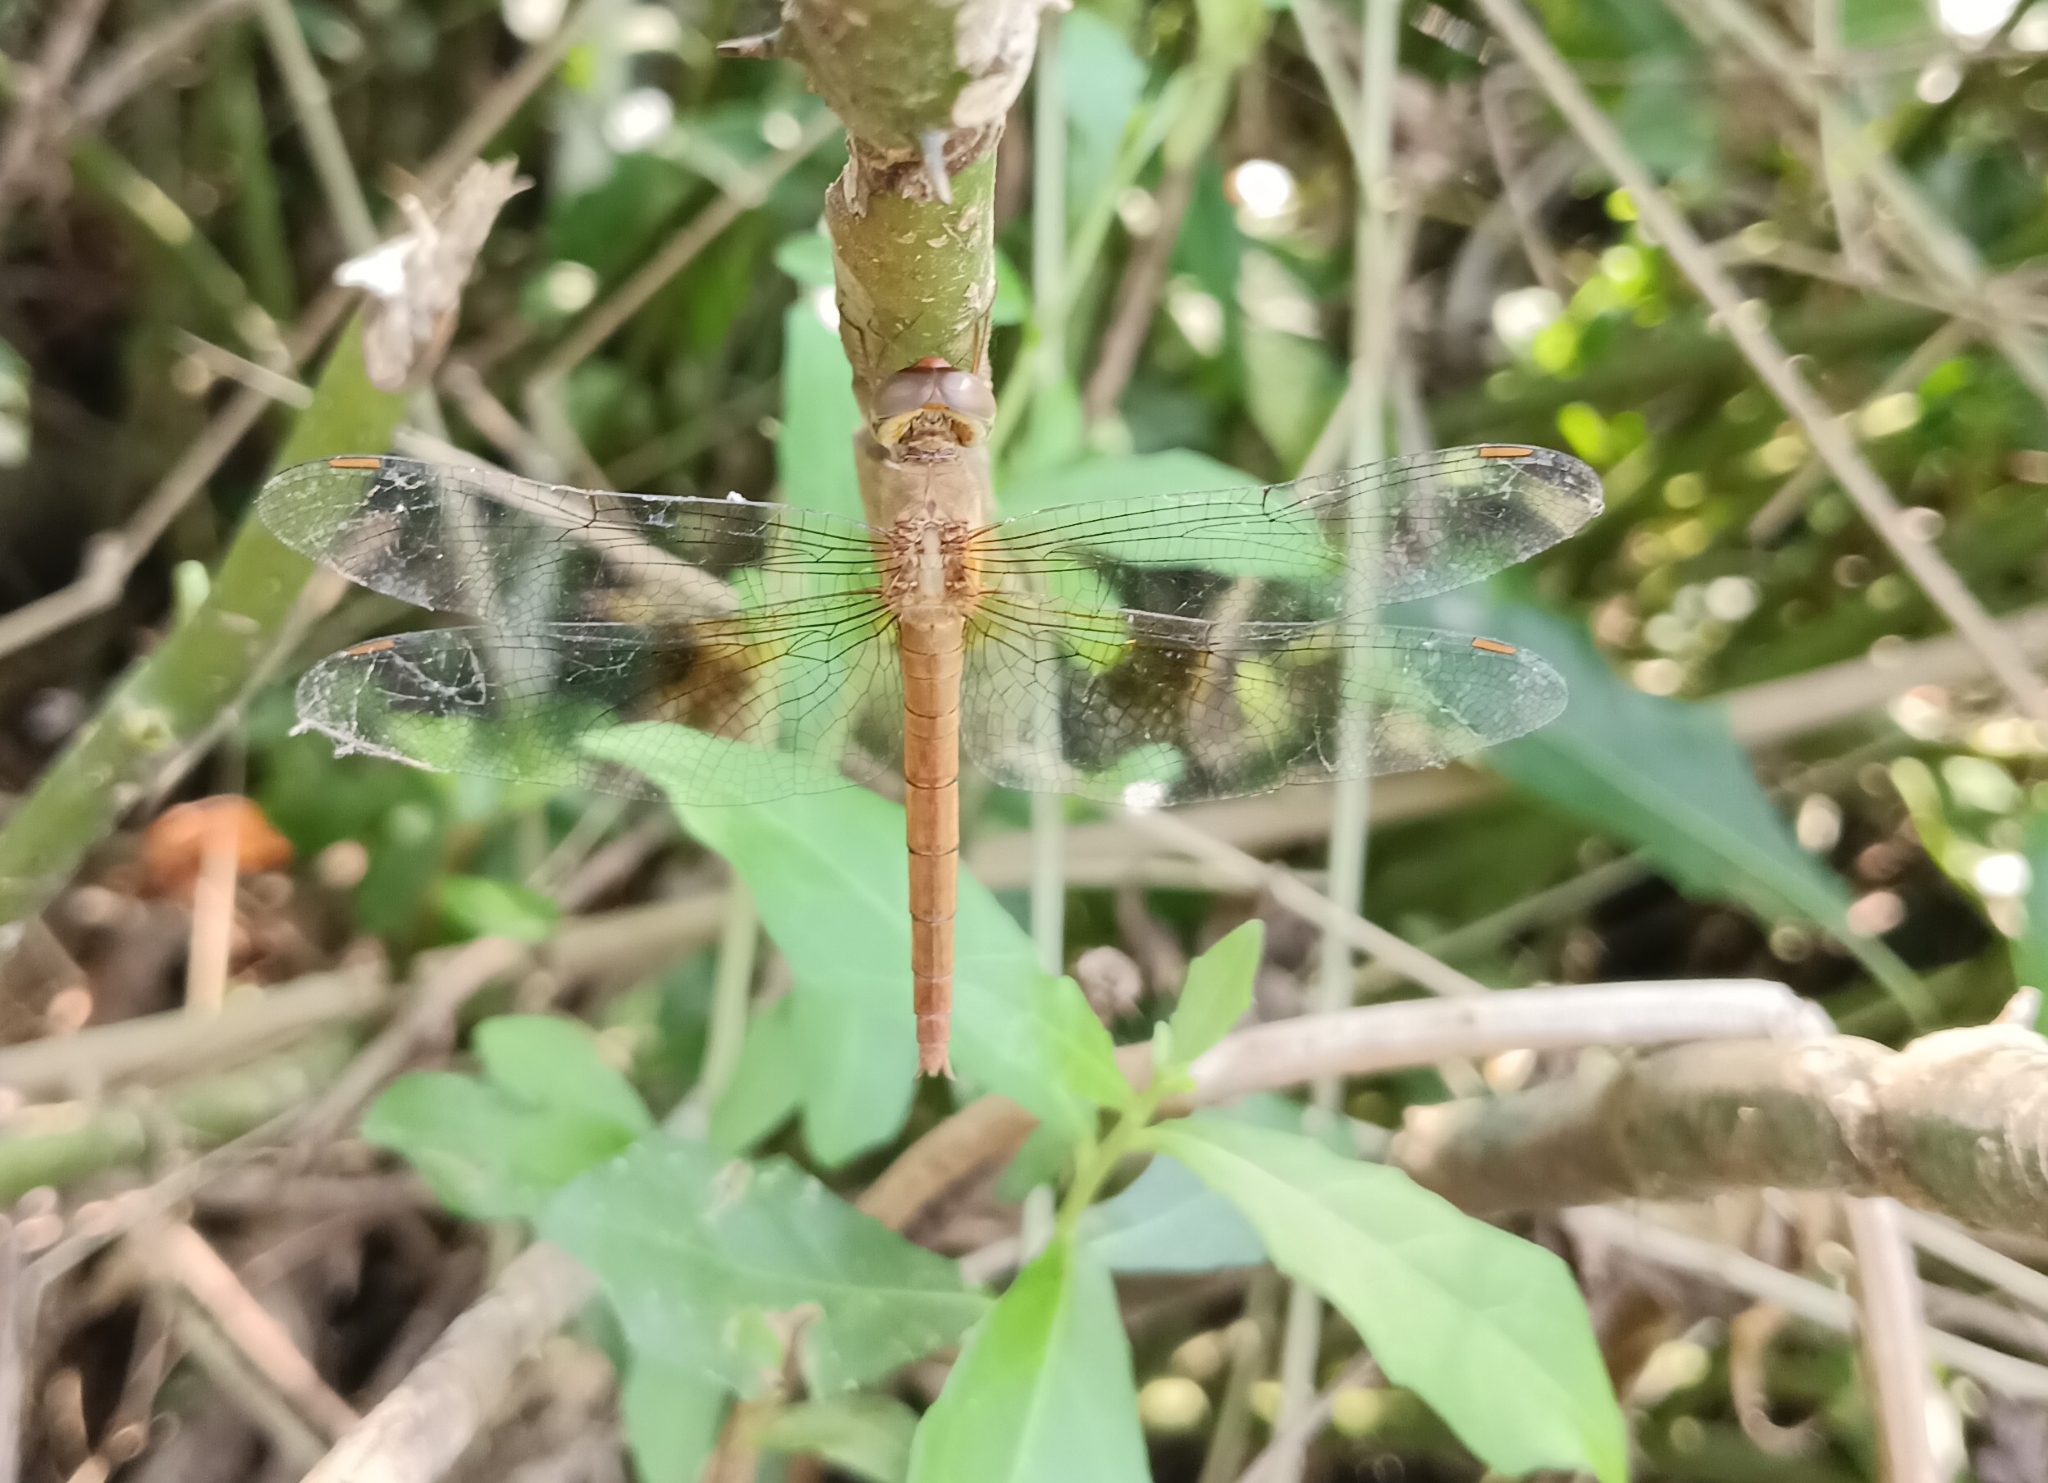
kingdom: Animalia
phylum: Arthropoda
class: Insecta
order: Odonata
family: Libellulidae
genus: Tholymis
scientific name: Tholymis tillarga
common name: Coral-tailed cloud wing
